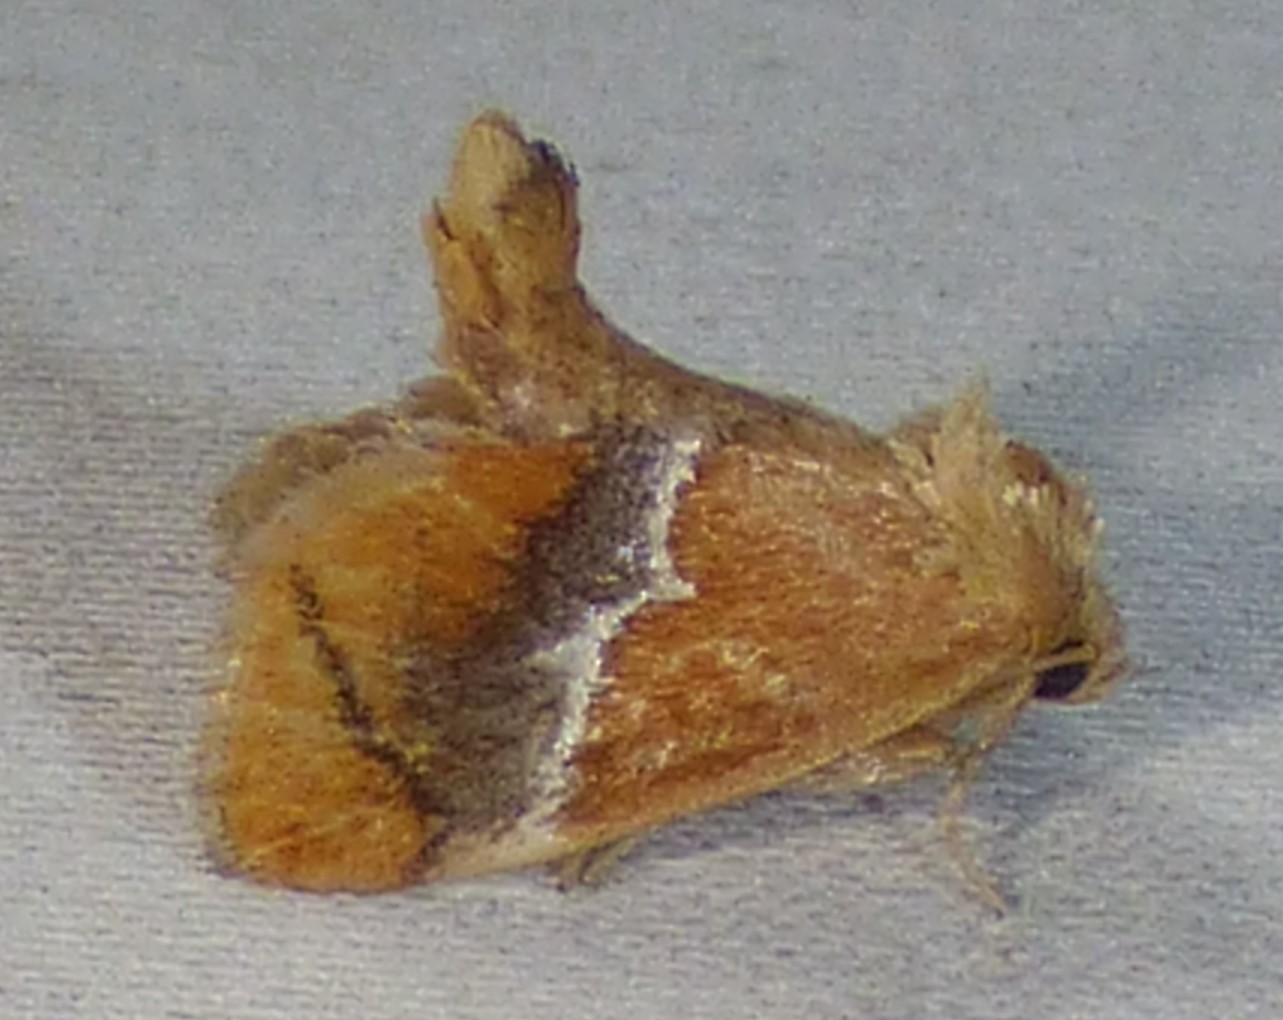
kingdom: Animalia
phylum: Arthropoda
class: Insecta
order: Lepidoptera
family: Limacodidae
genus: Lithacodes
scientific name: Lithacodes fasciola
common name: Yellow-shouldered slug moth
